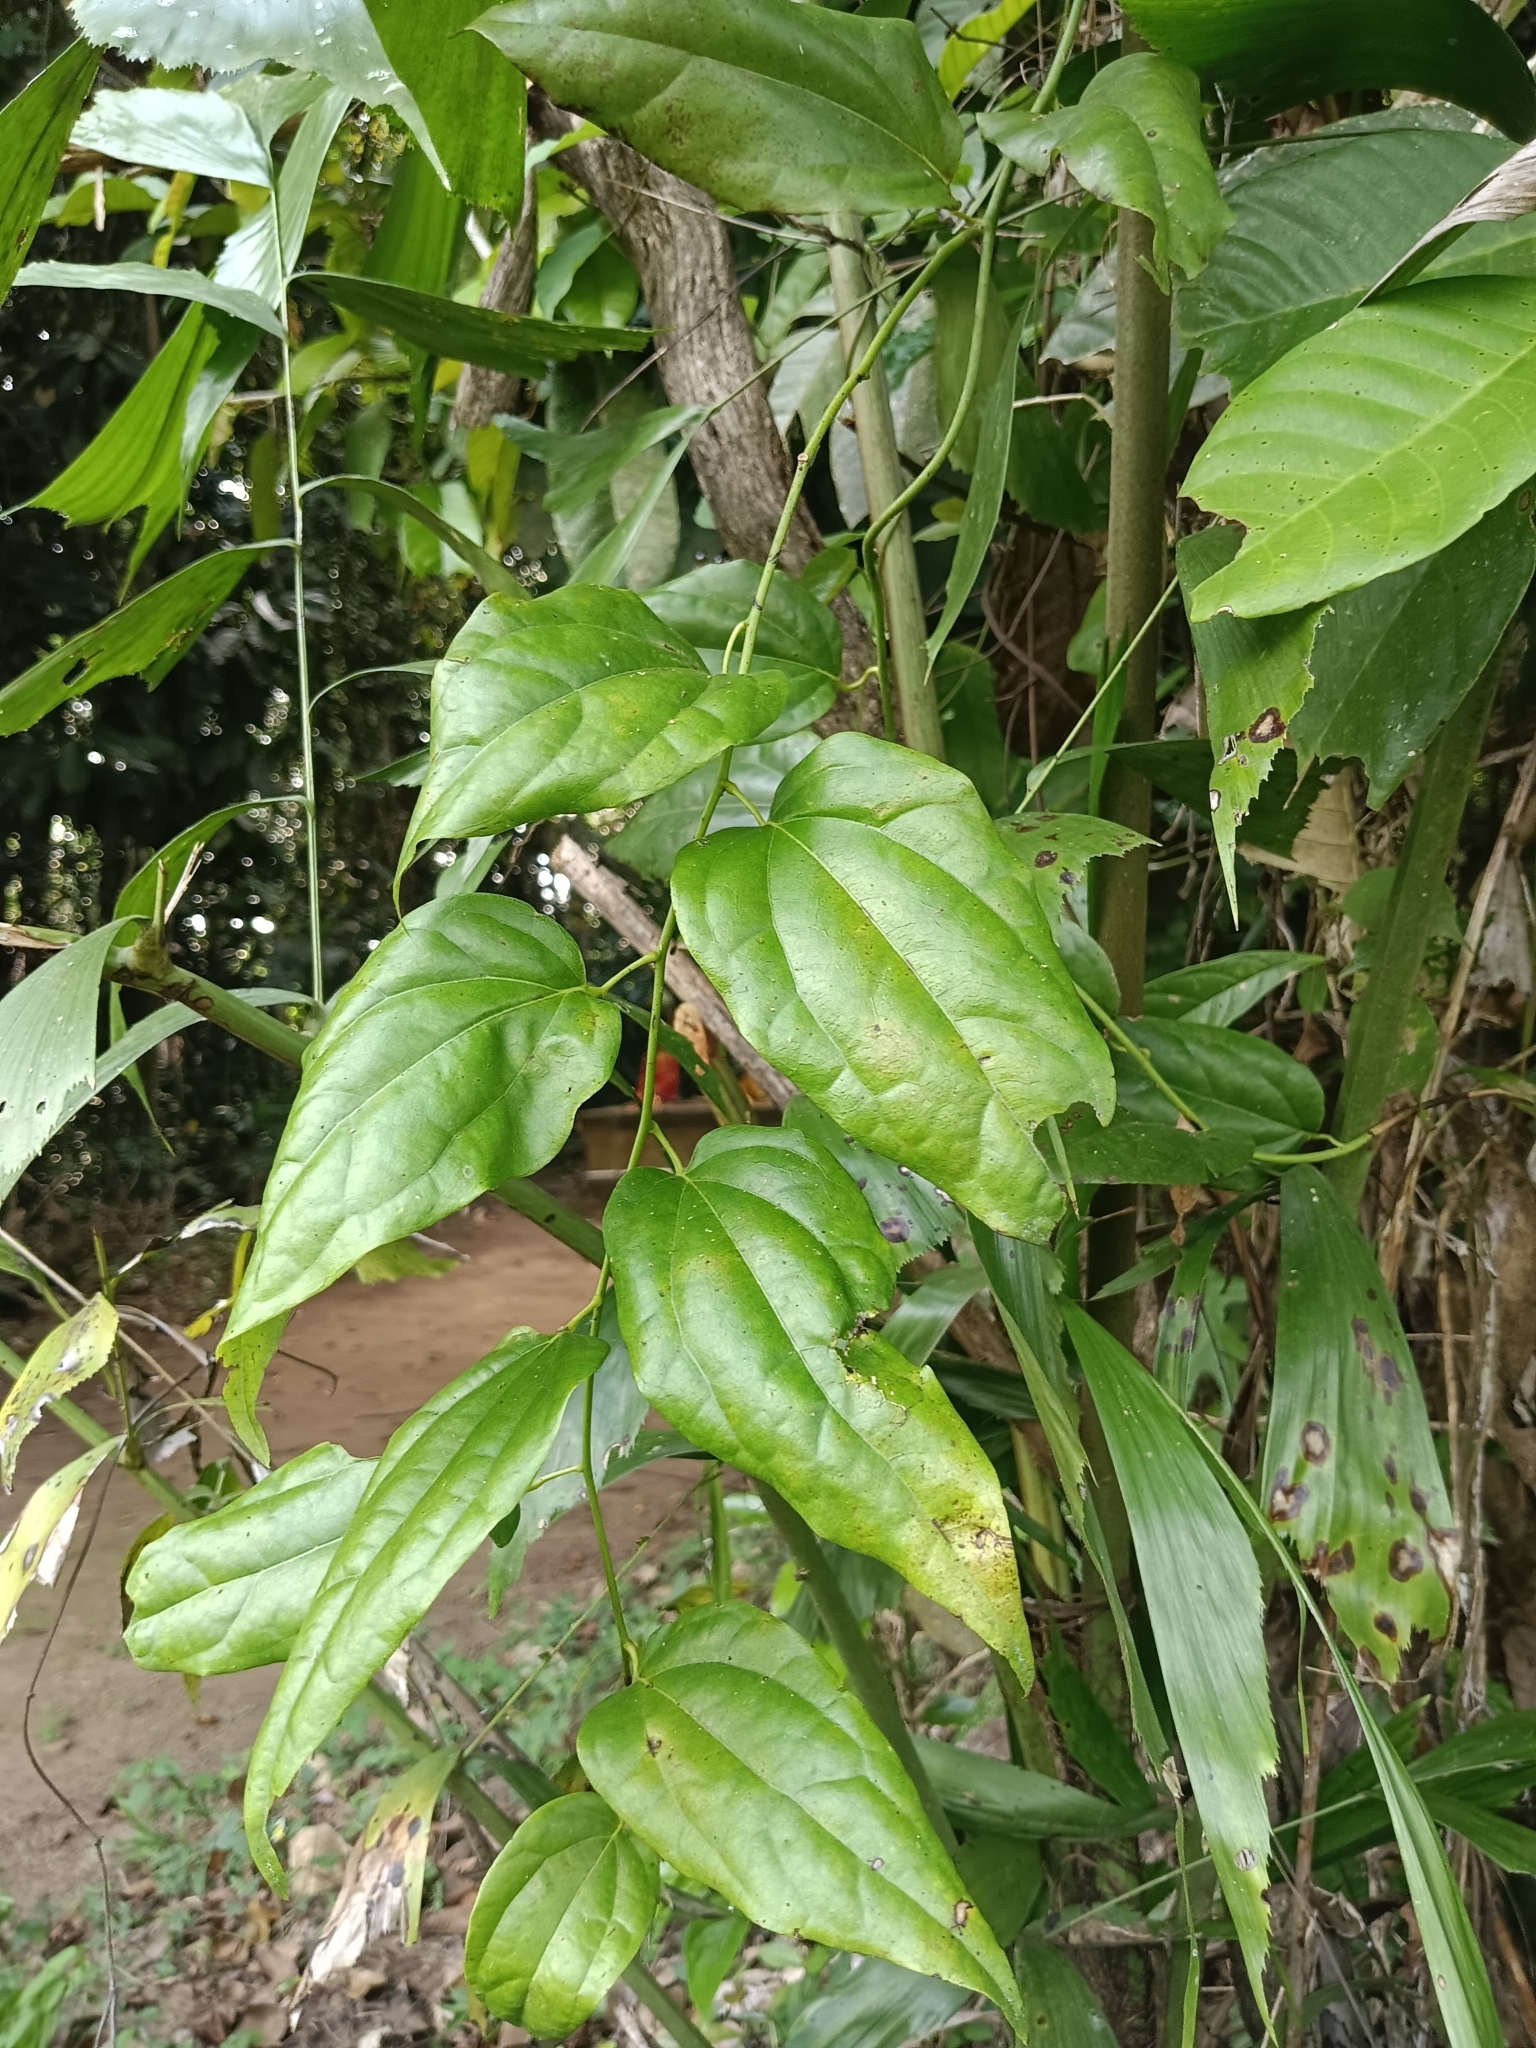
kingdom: Plantae
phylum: Tracheophyta
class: Magnoliopsida
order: Ranunculales
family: Menispermaceae
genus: Tiliacora
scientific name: Tiliacora acuminata
